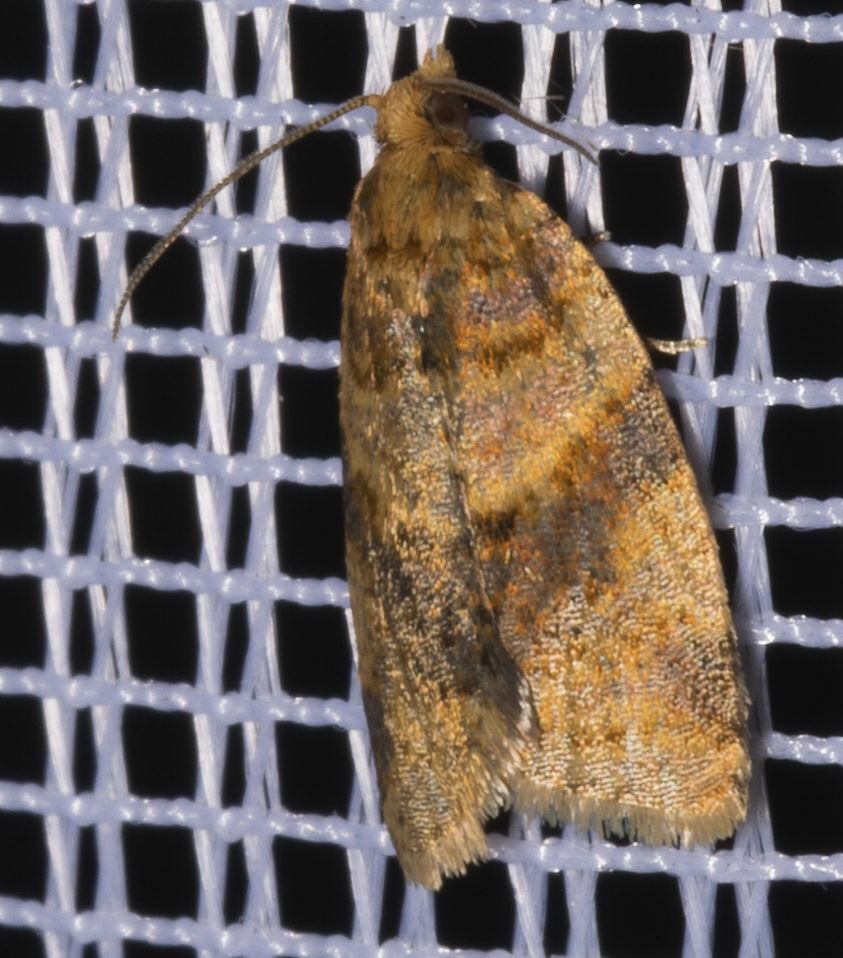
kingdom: Animalia
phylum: Arthropoda
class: Insecta
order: Lepidoptera
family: Tortricidae
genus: Epagoge
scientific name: Epagoge grotiana
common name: Brown-barred twist
